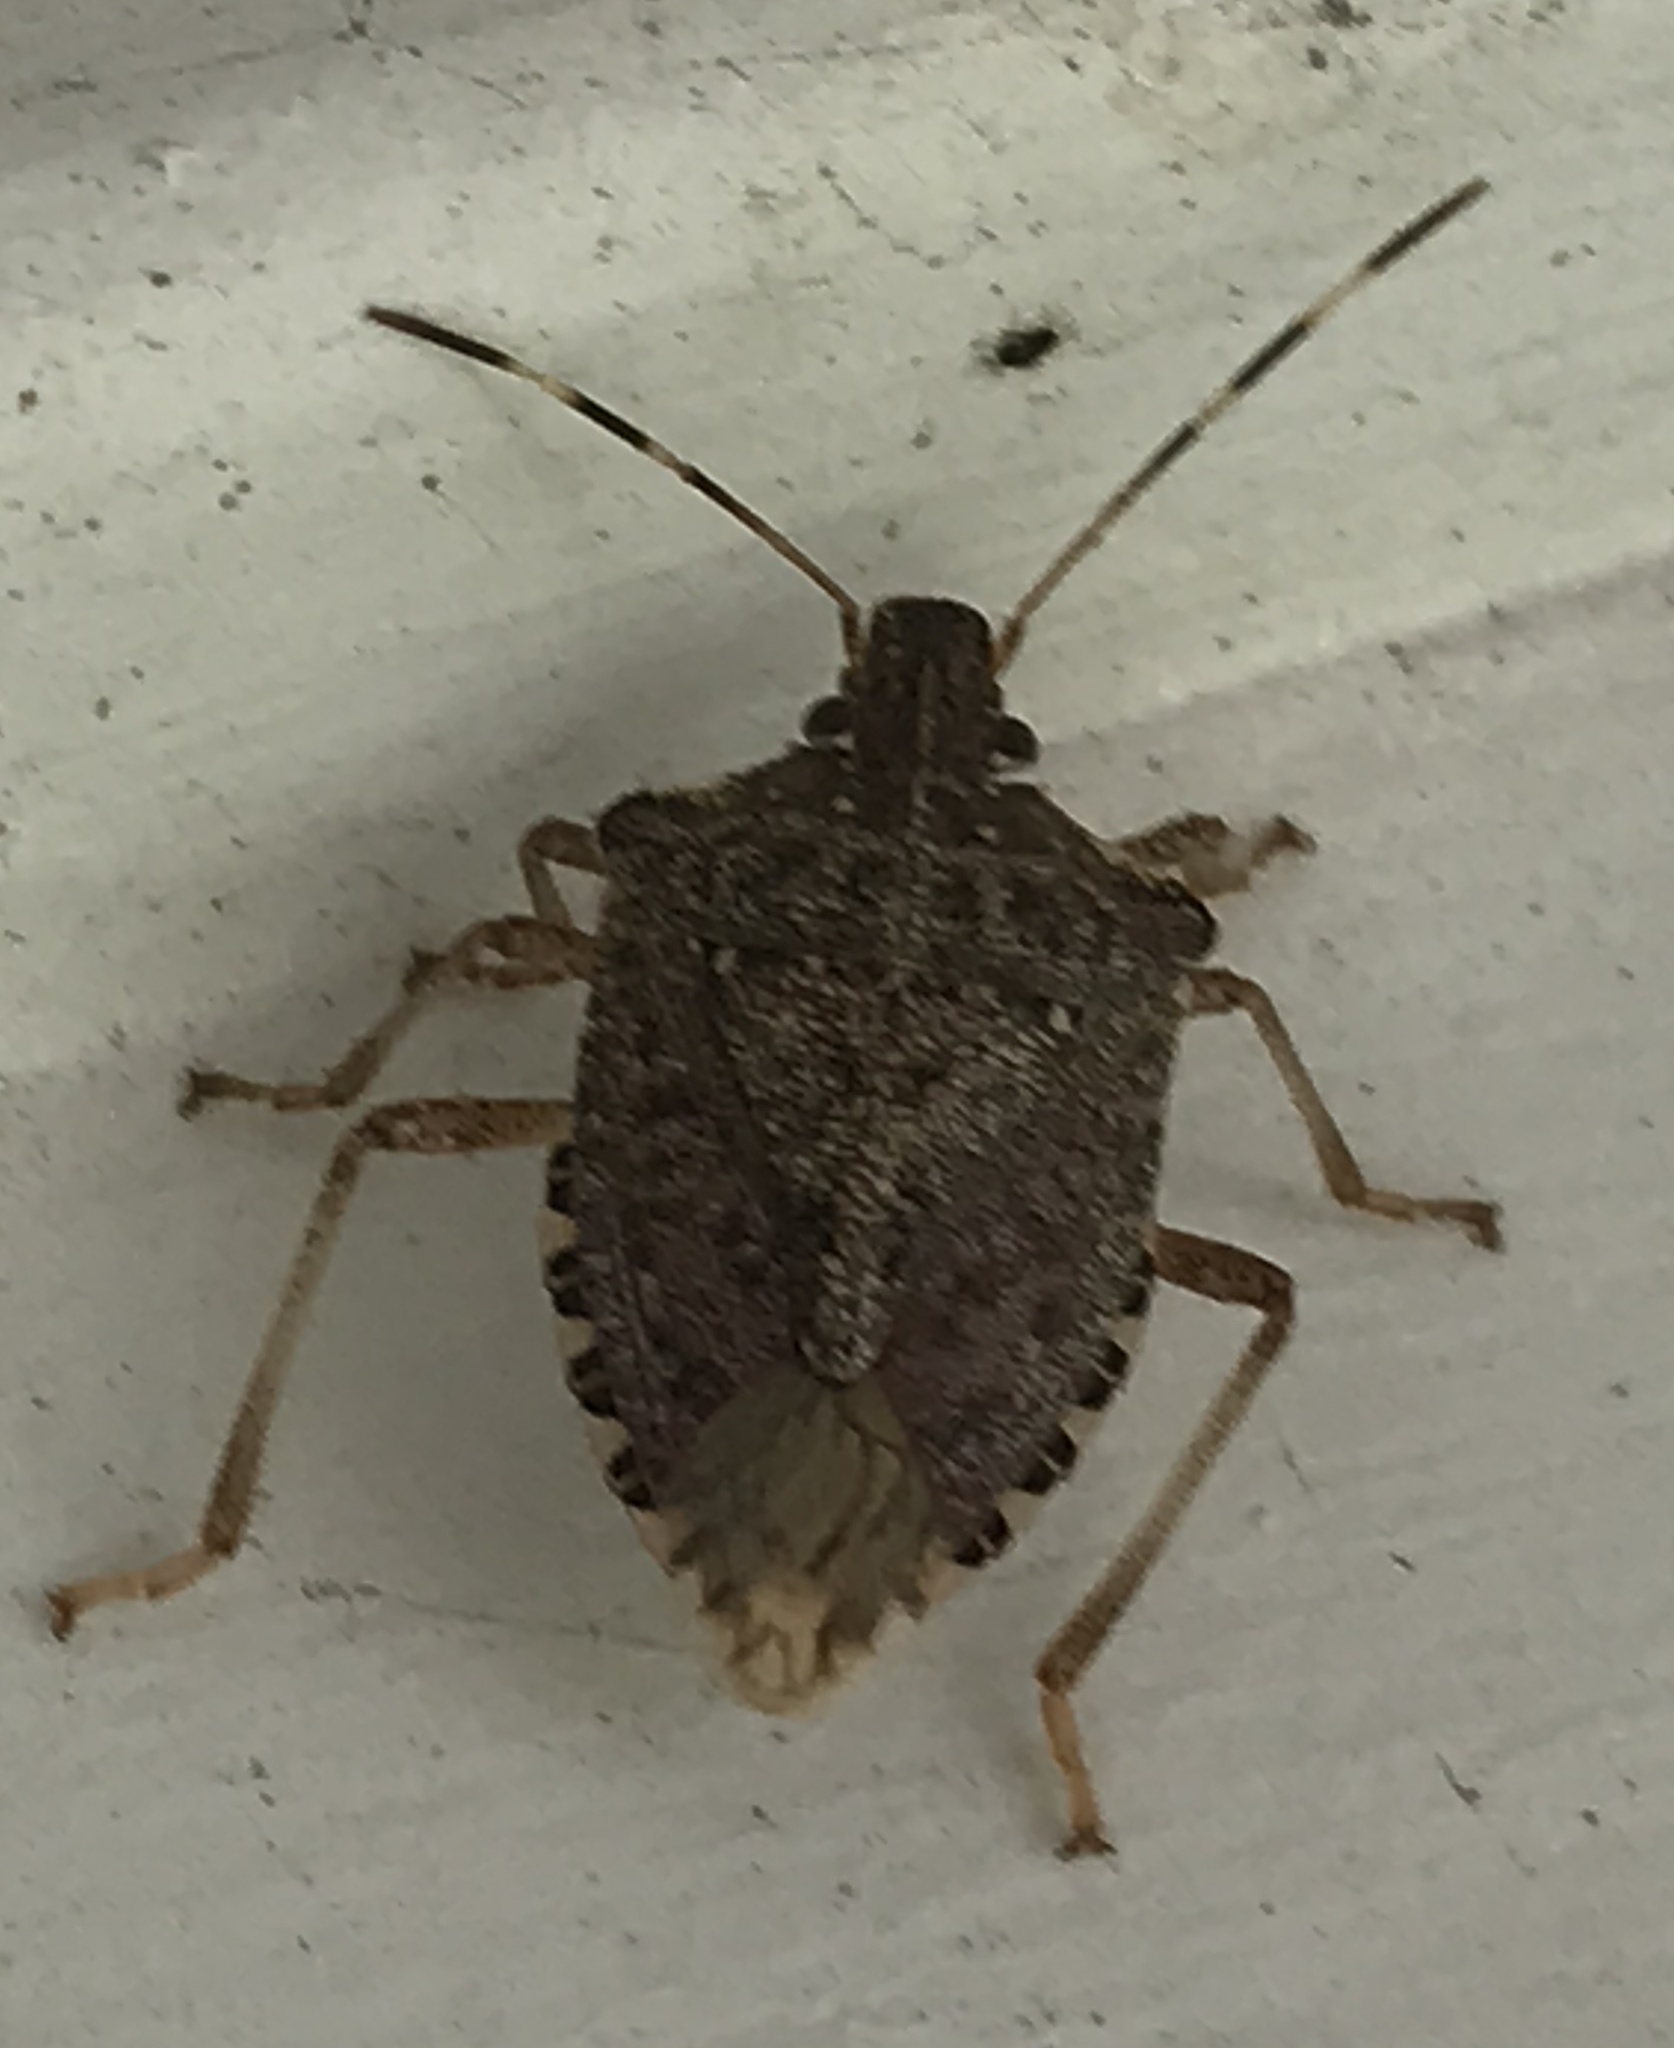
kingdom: Animalia
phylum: Arthropoda
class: Insecta
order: Hemiptera
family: Pentatomidae
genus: Halyomorpha
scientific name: Halyomorpha halys
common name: Brown marmorated stink bug
